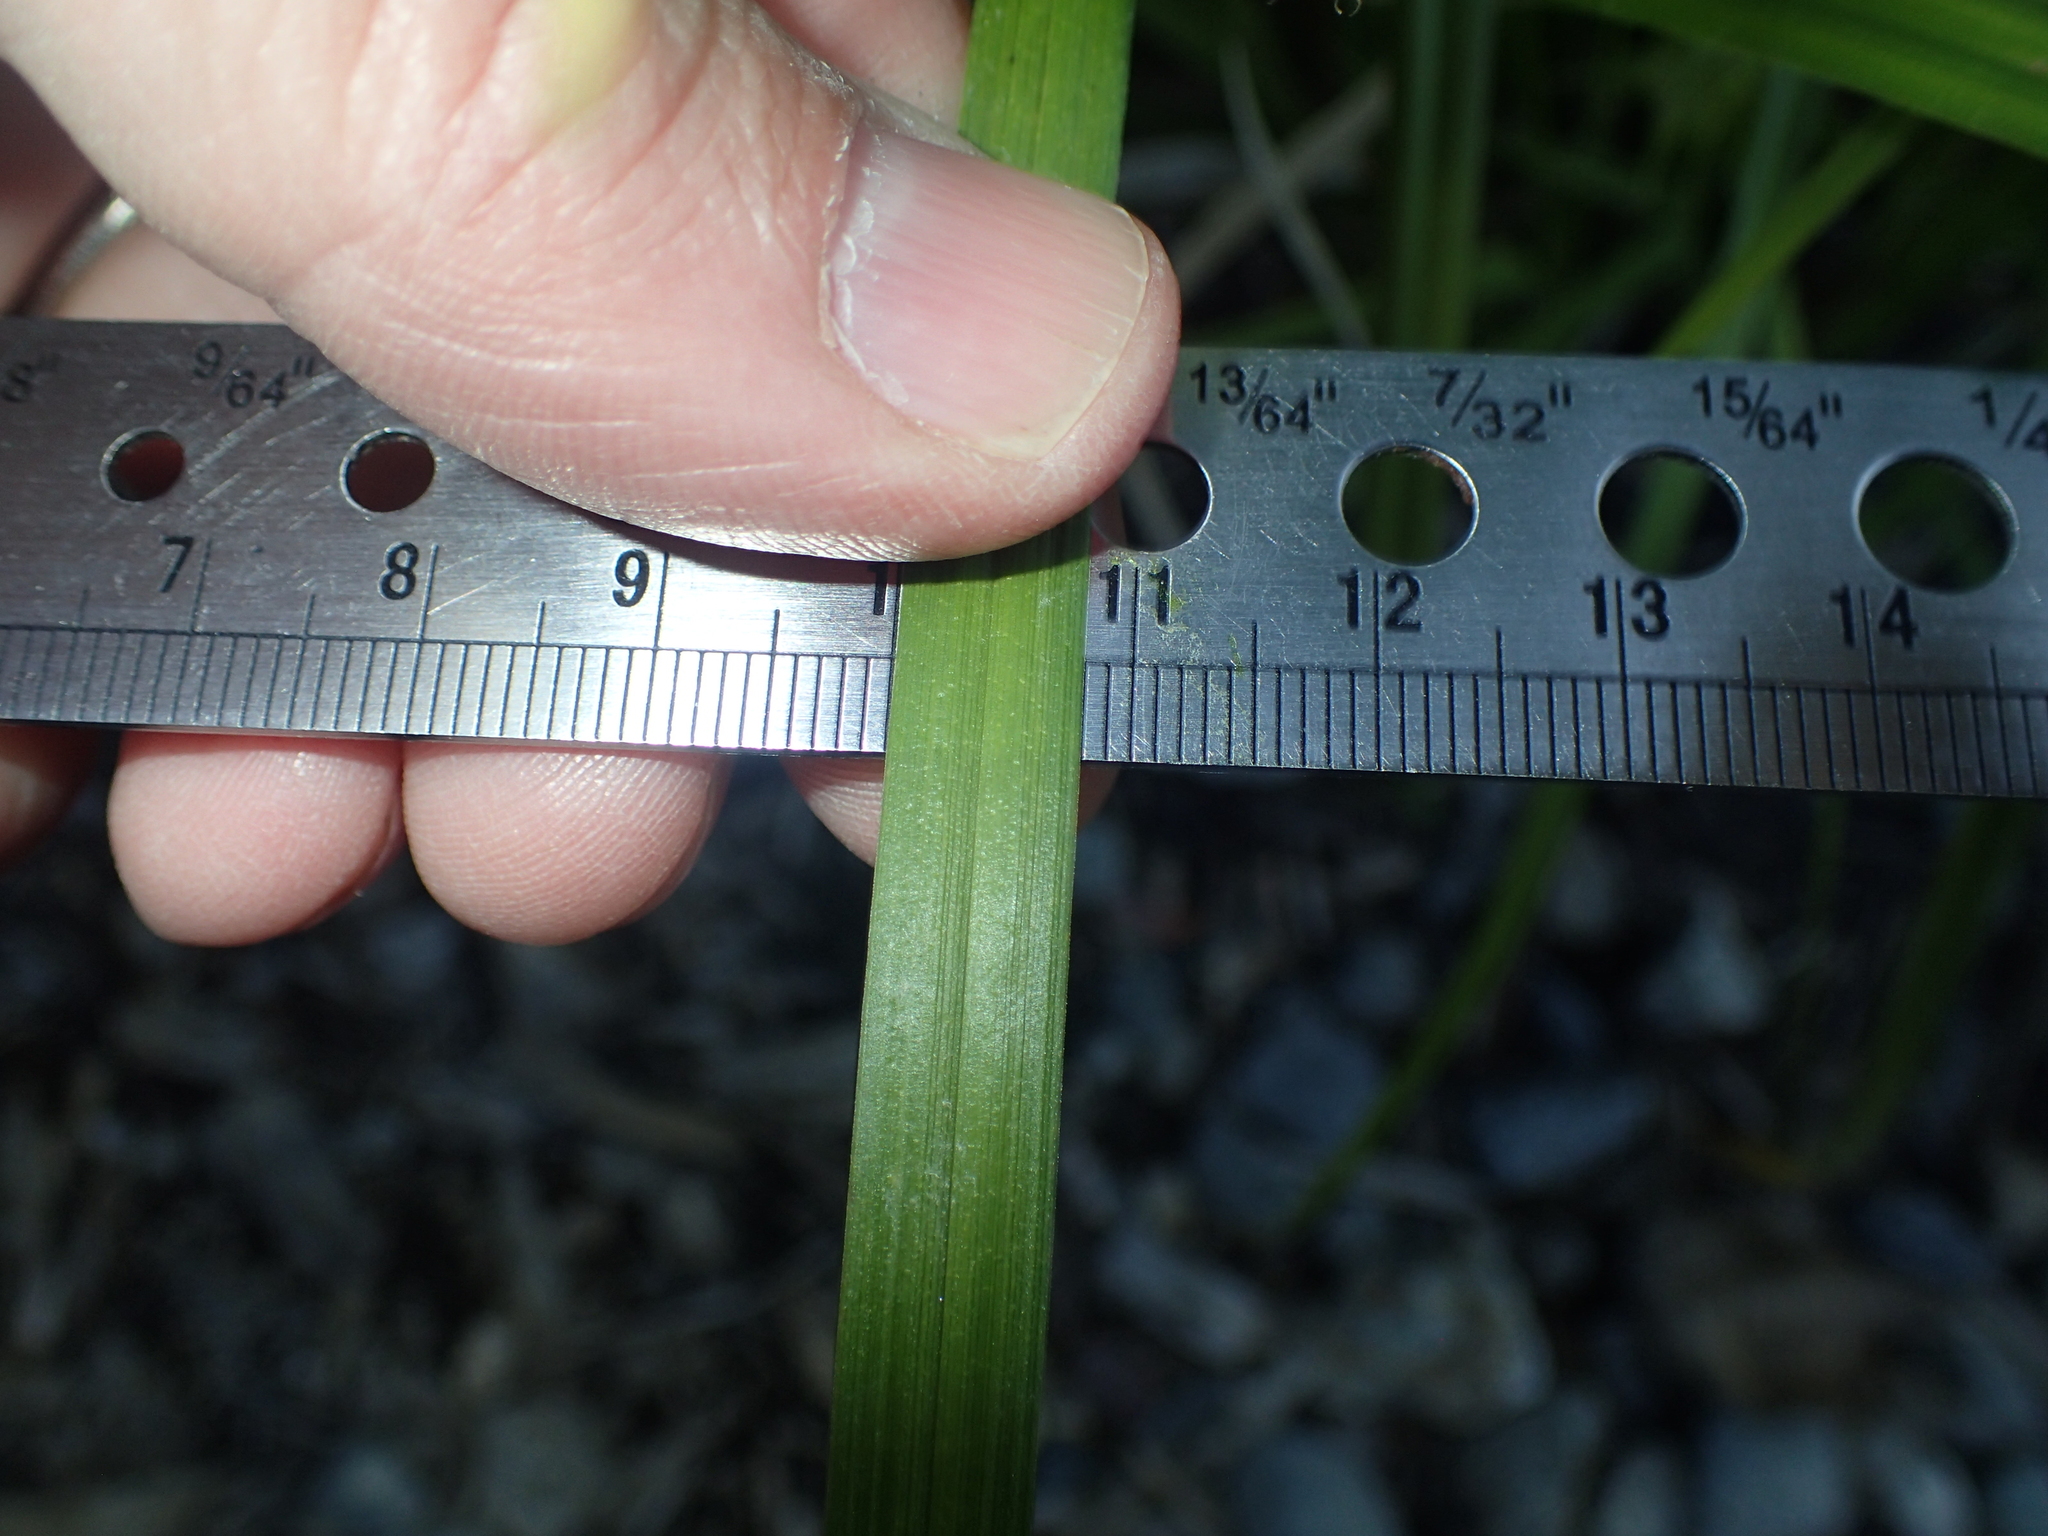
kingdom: Plantae
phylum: Tracheophyta
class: Liliopsida
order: Poales
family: Cyperaceae
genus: Carex
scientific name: Carex intumescens
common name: Greater bladder sedge
